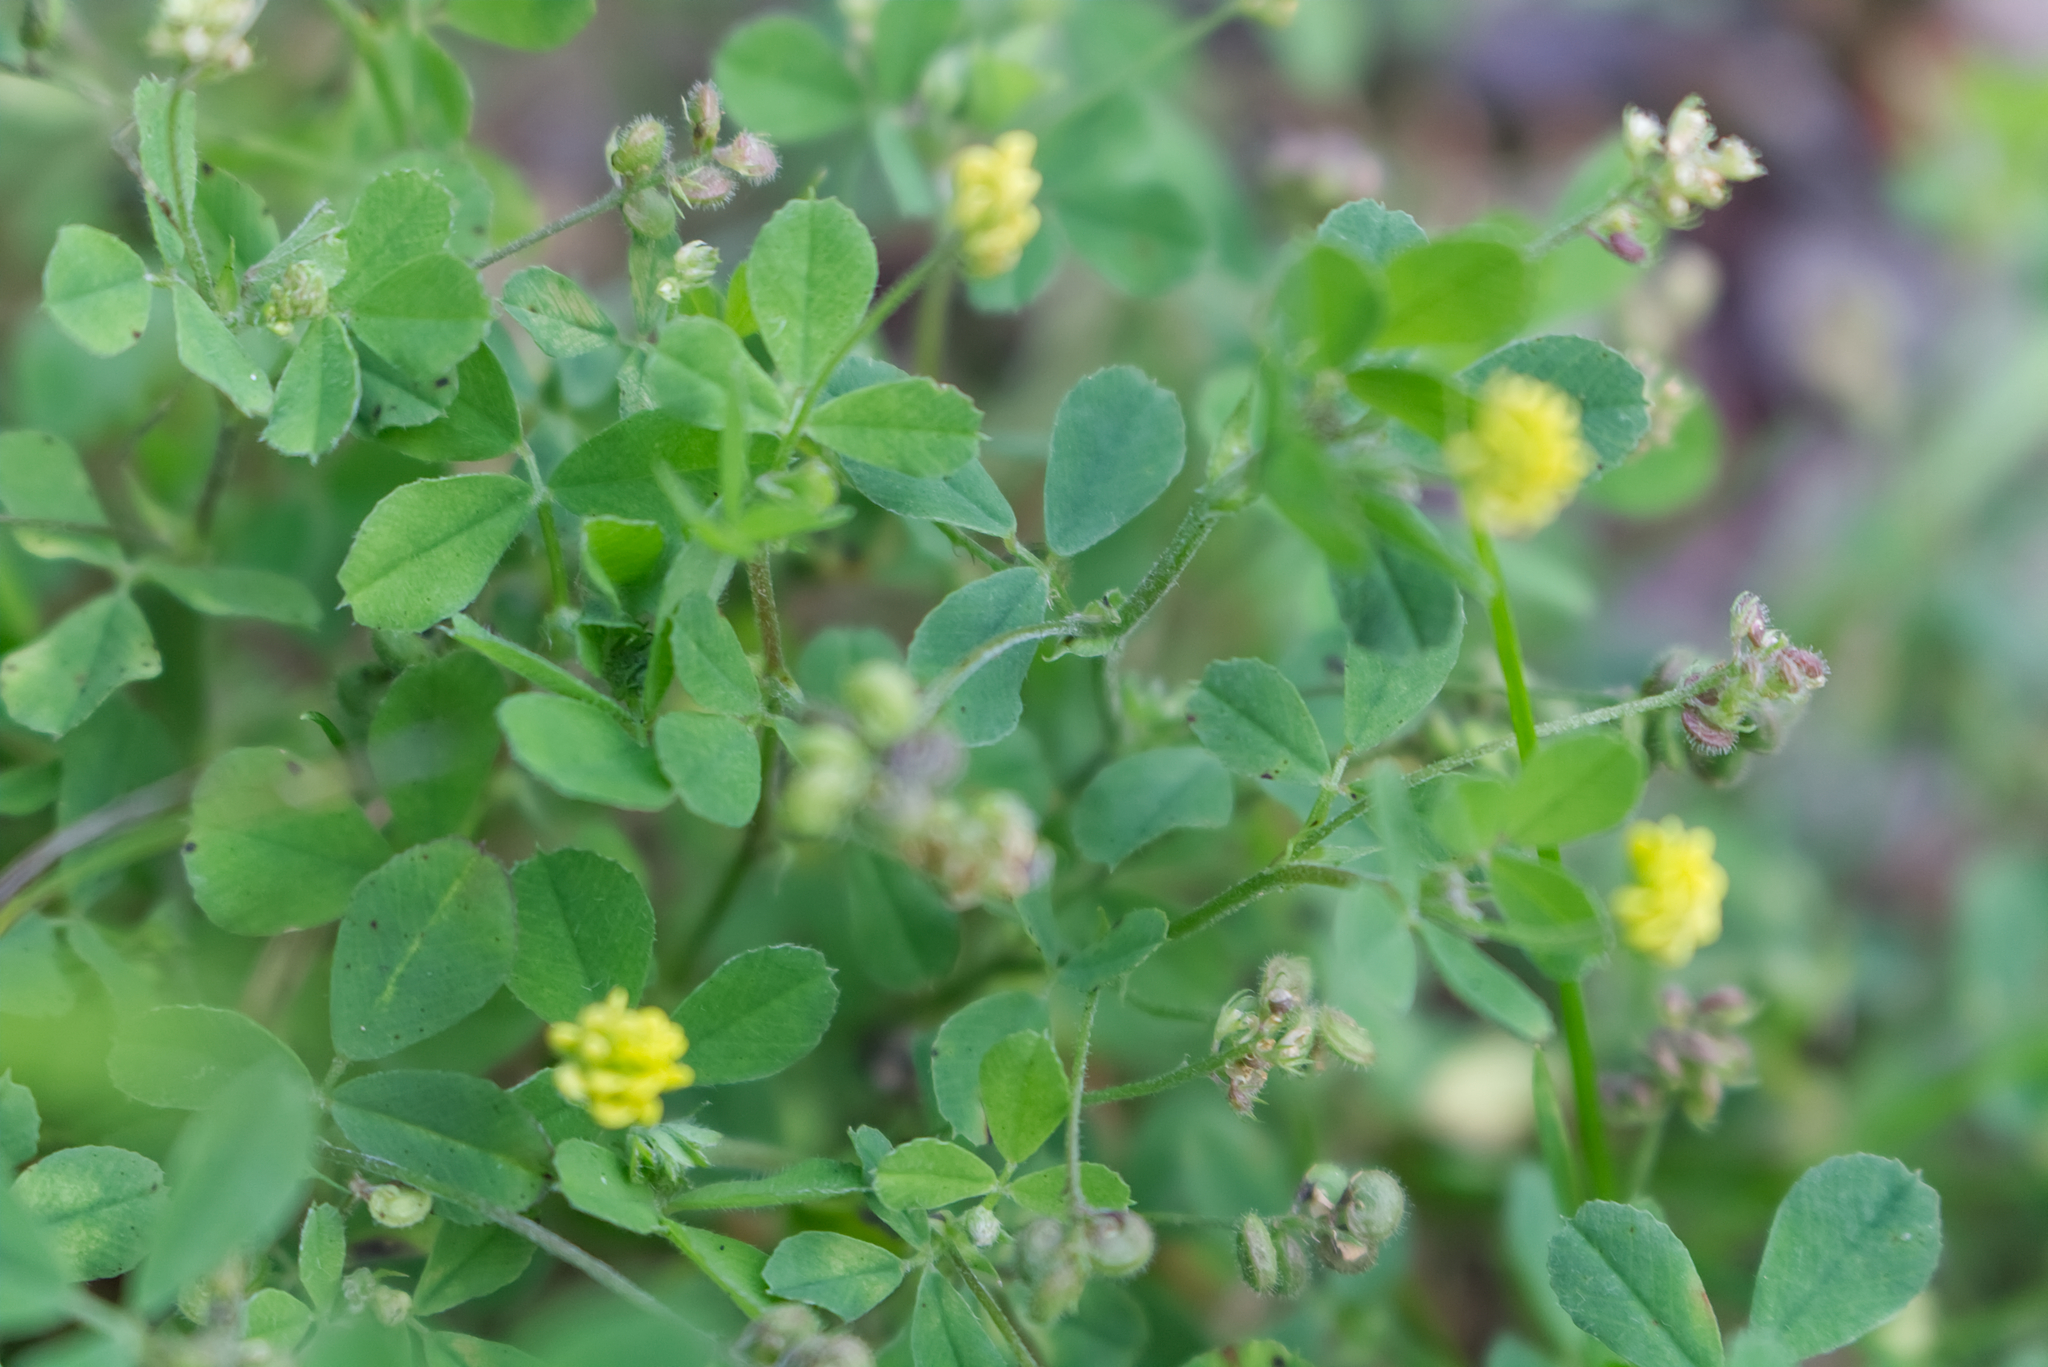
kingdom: Plantae
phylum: Tracheophyta
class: Magnoliopsida
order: Fabales
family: Fabaceae
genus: Medicago
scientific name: Medicago lupulina
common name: Black medick
